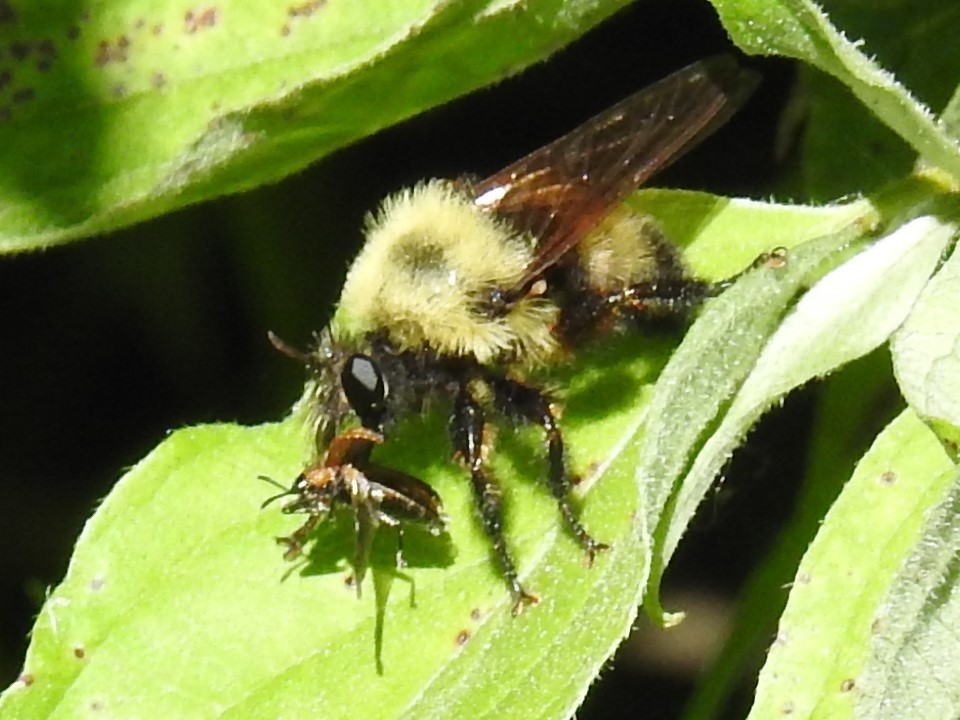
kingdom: Animalia
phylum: Arthropoda
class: Insecta
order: Diptera
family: Asilidae
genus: Laphria
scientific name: Laphria thoracica
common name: Bumble bee mimic robber fly
